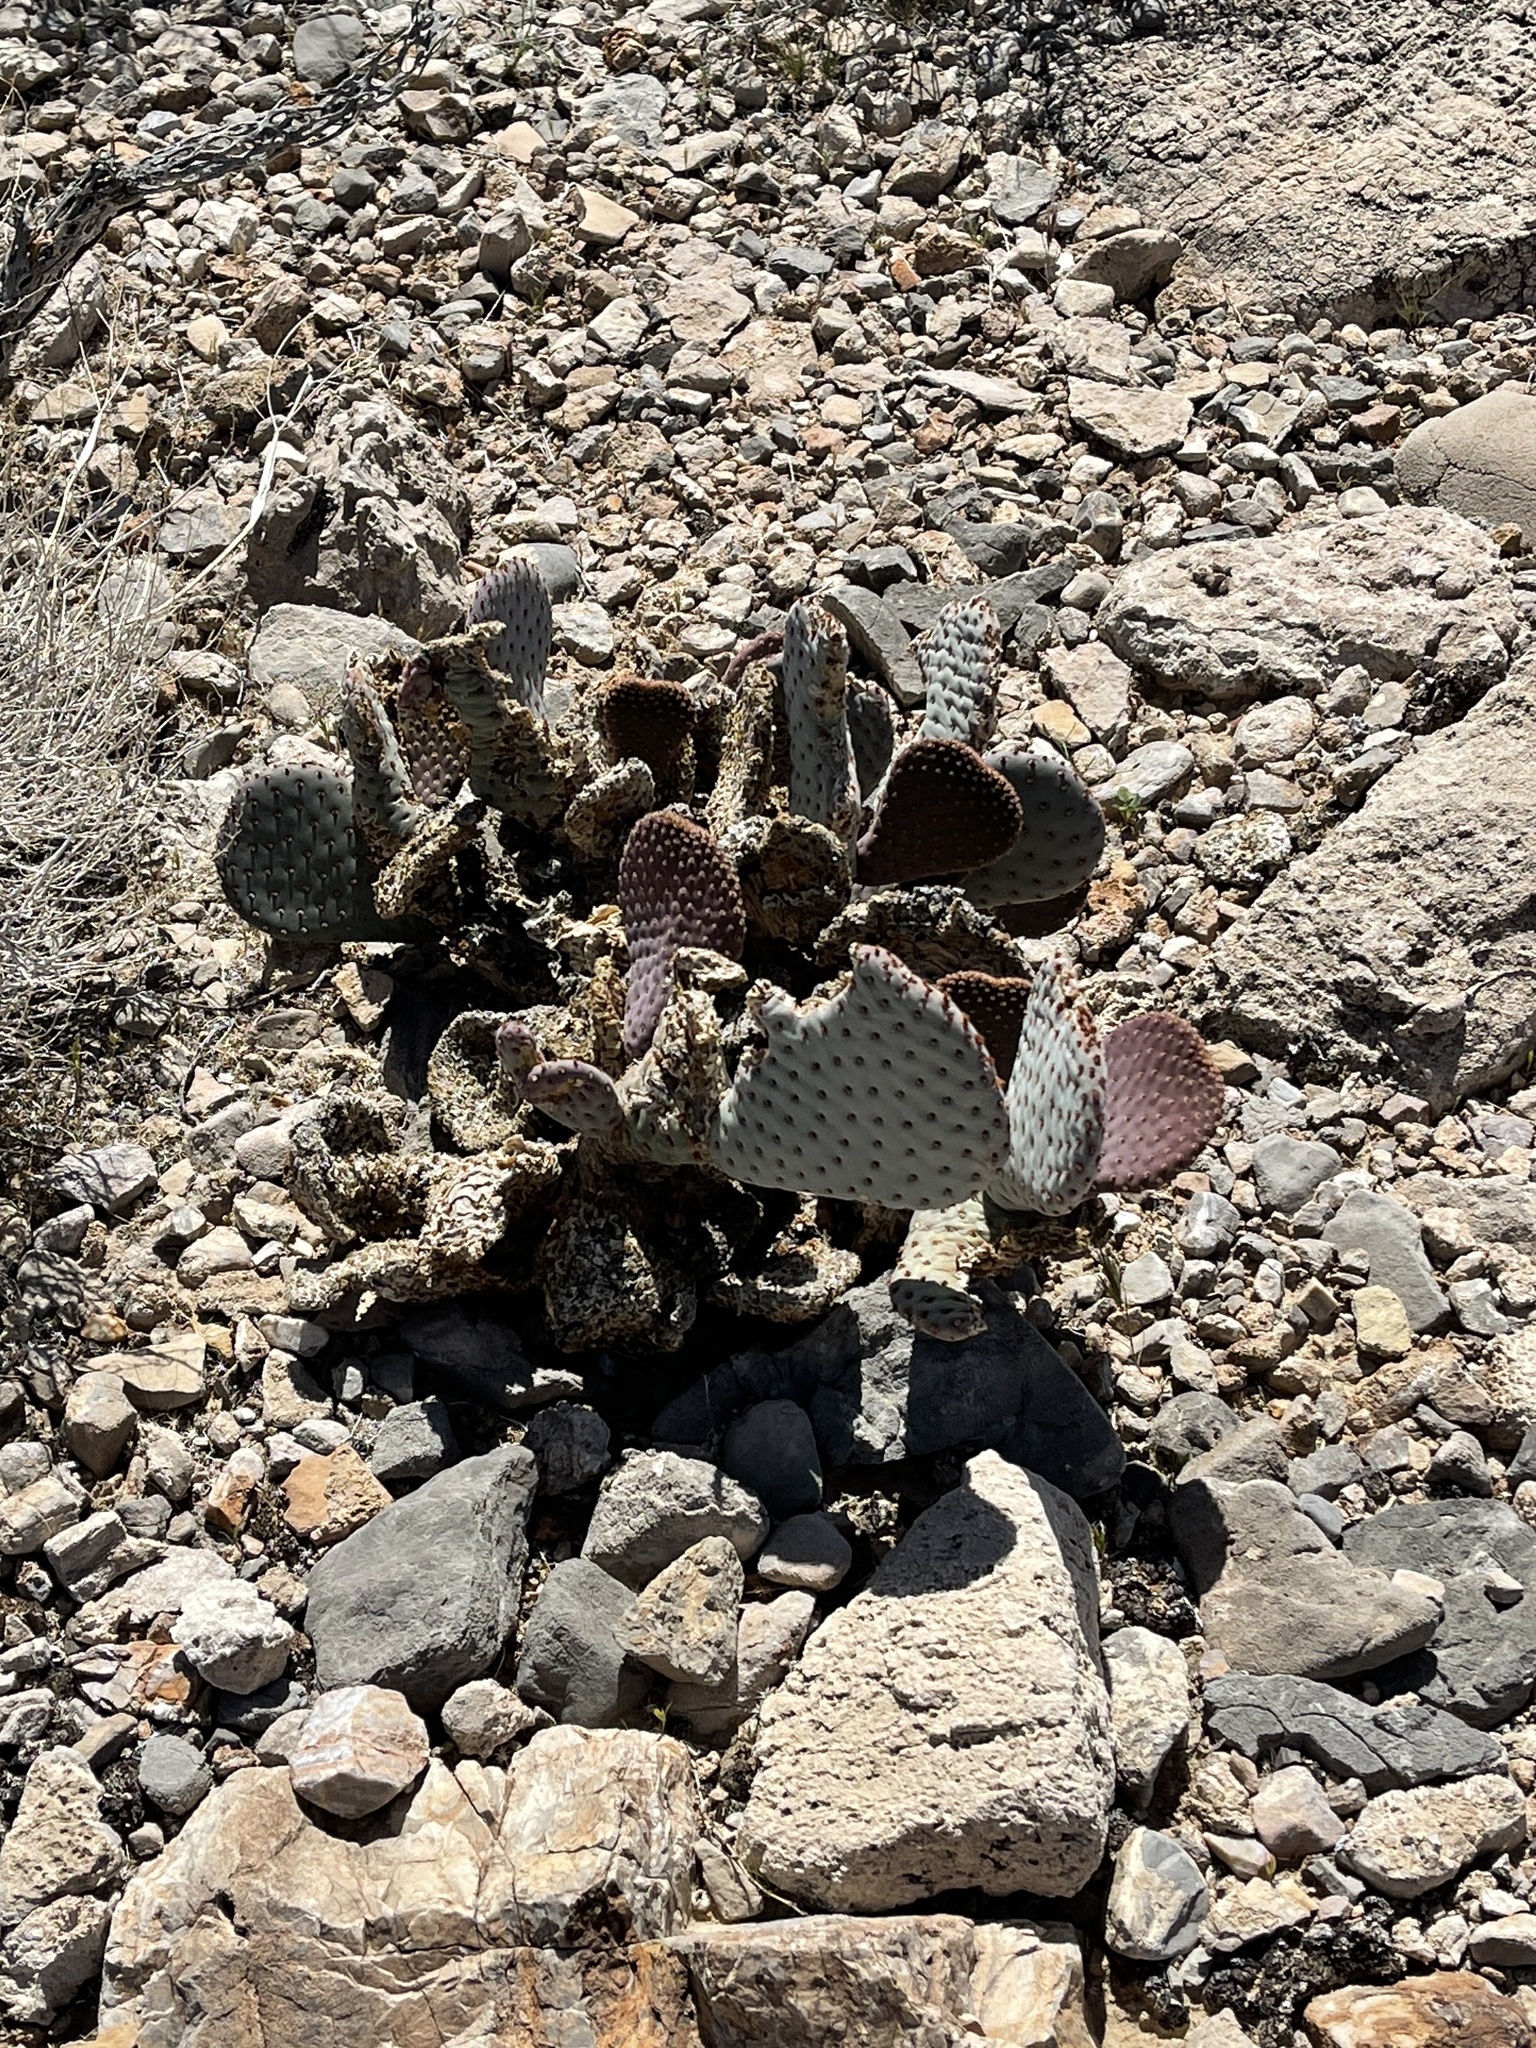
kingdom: Plantae
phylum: Tracheophyta
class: Magnoliopsida
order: Caryophyllales
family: Cactaceae
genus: Opuntia
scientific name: Opuntia basilaris
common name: Beavertail prickly-pear
